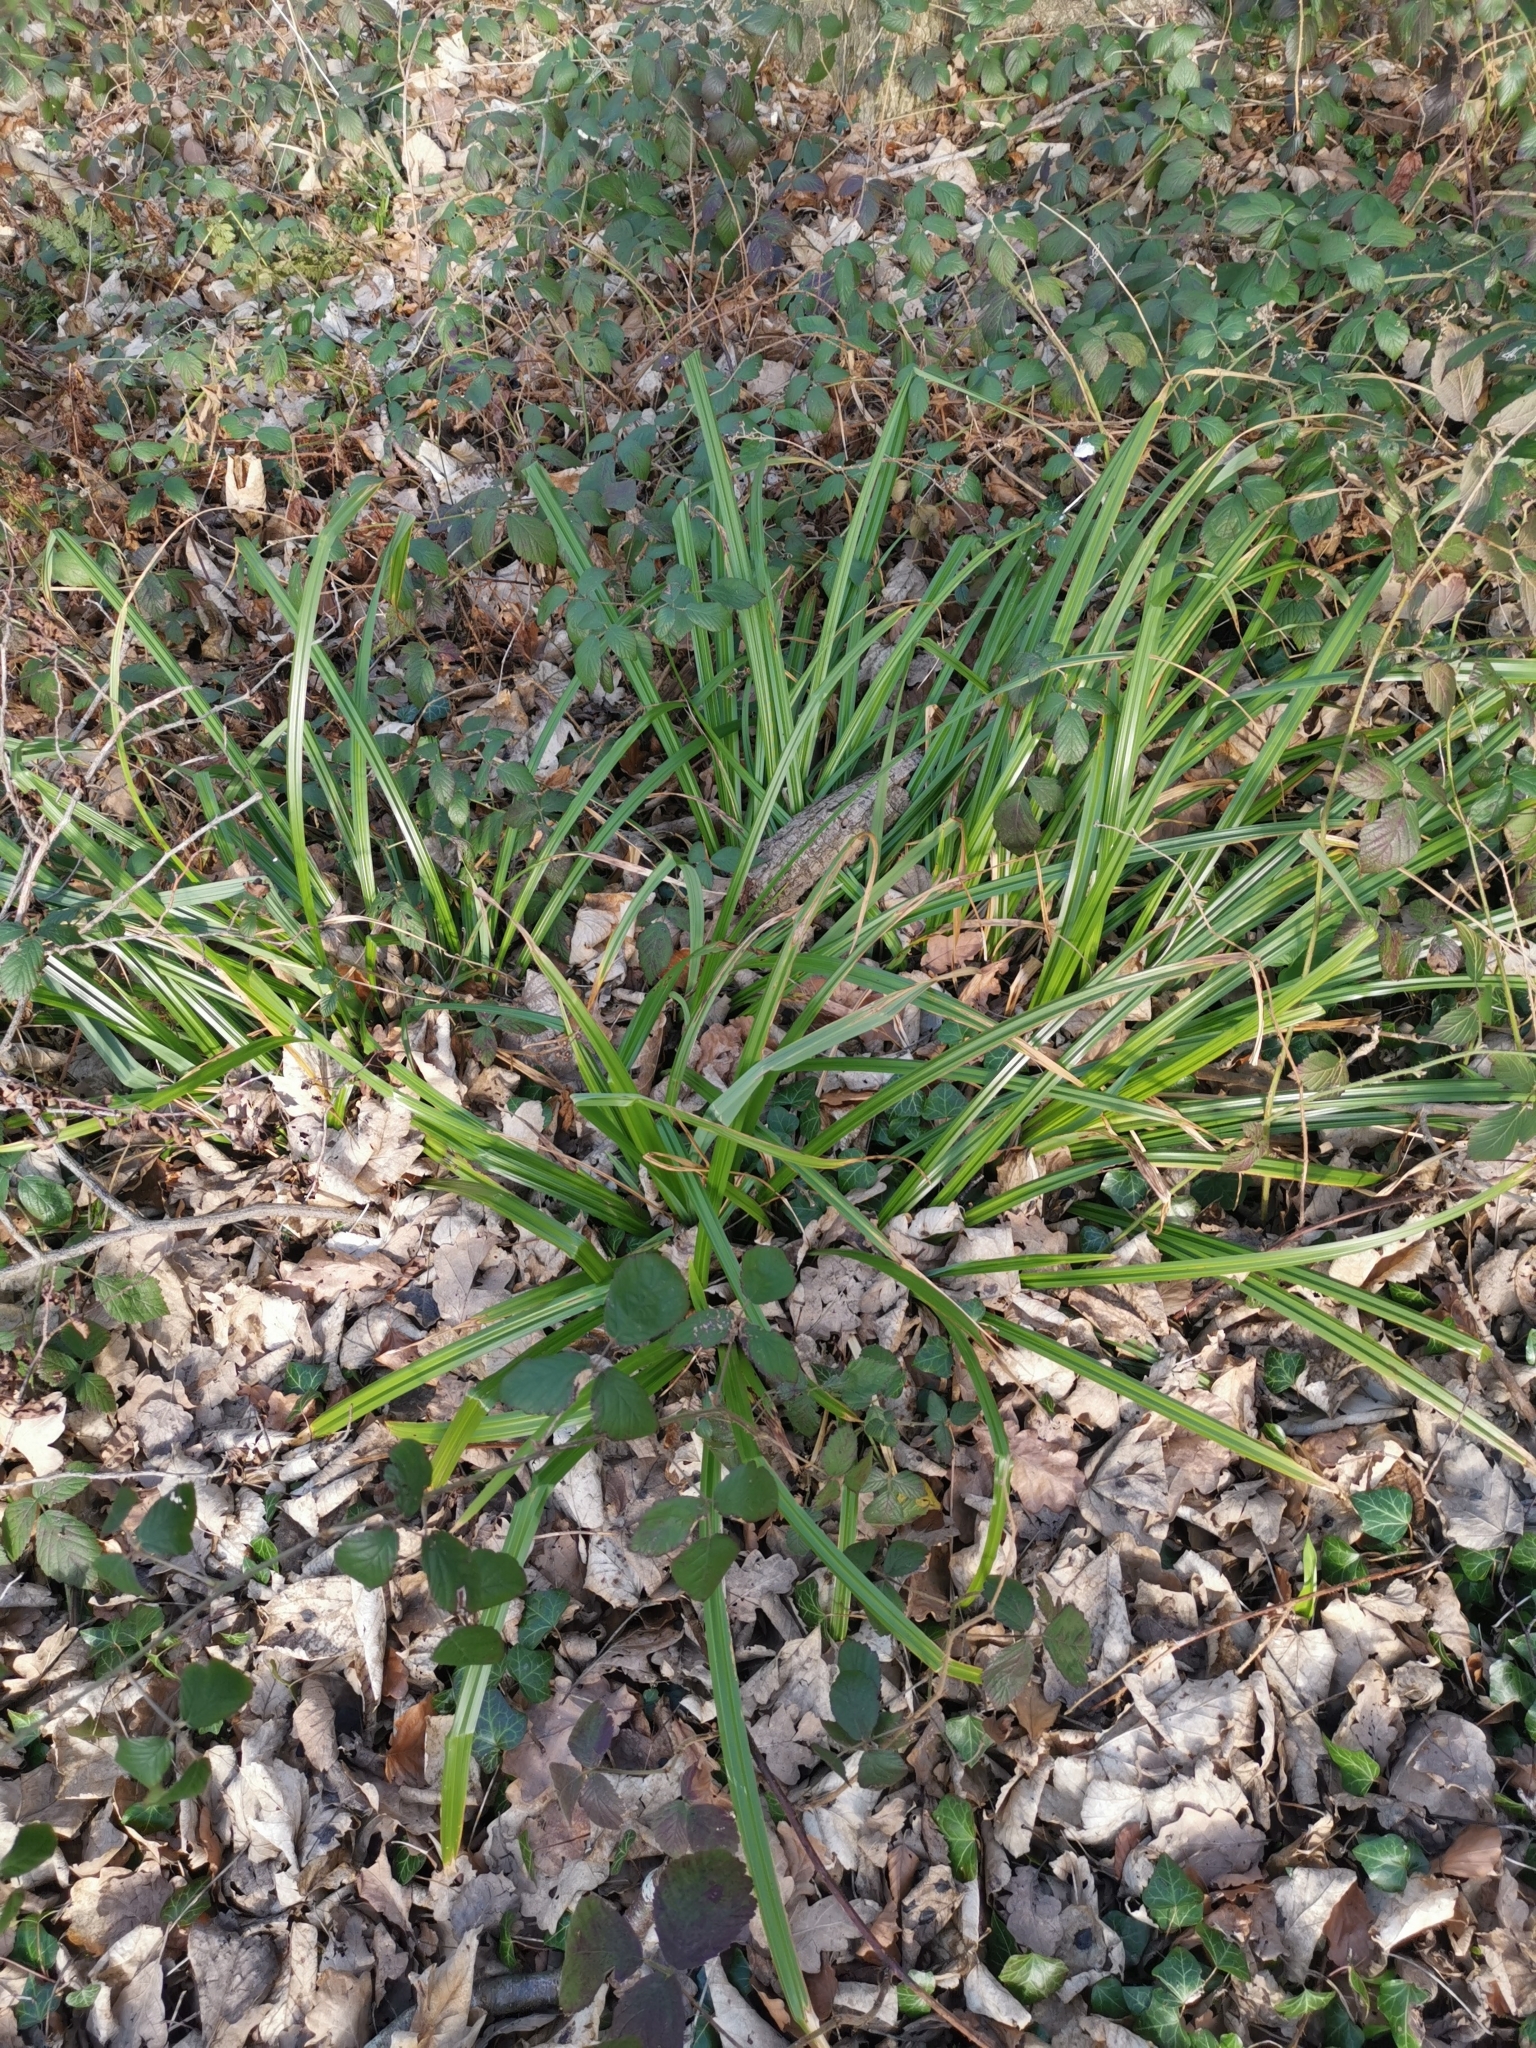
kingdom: Plantae
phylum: Tracheophyta
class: Liliopsida
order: Poales
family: Cyperaceae
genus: Carex
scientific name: Carex pendula
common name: Pendulous sedge
